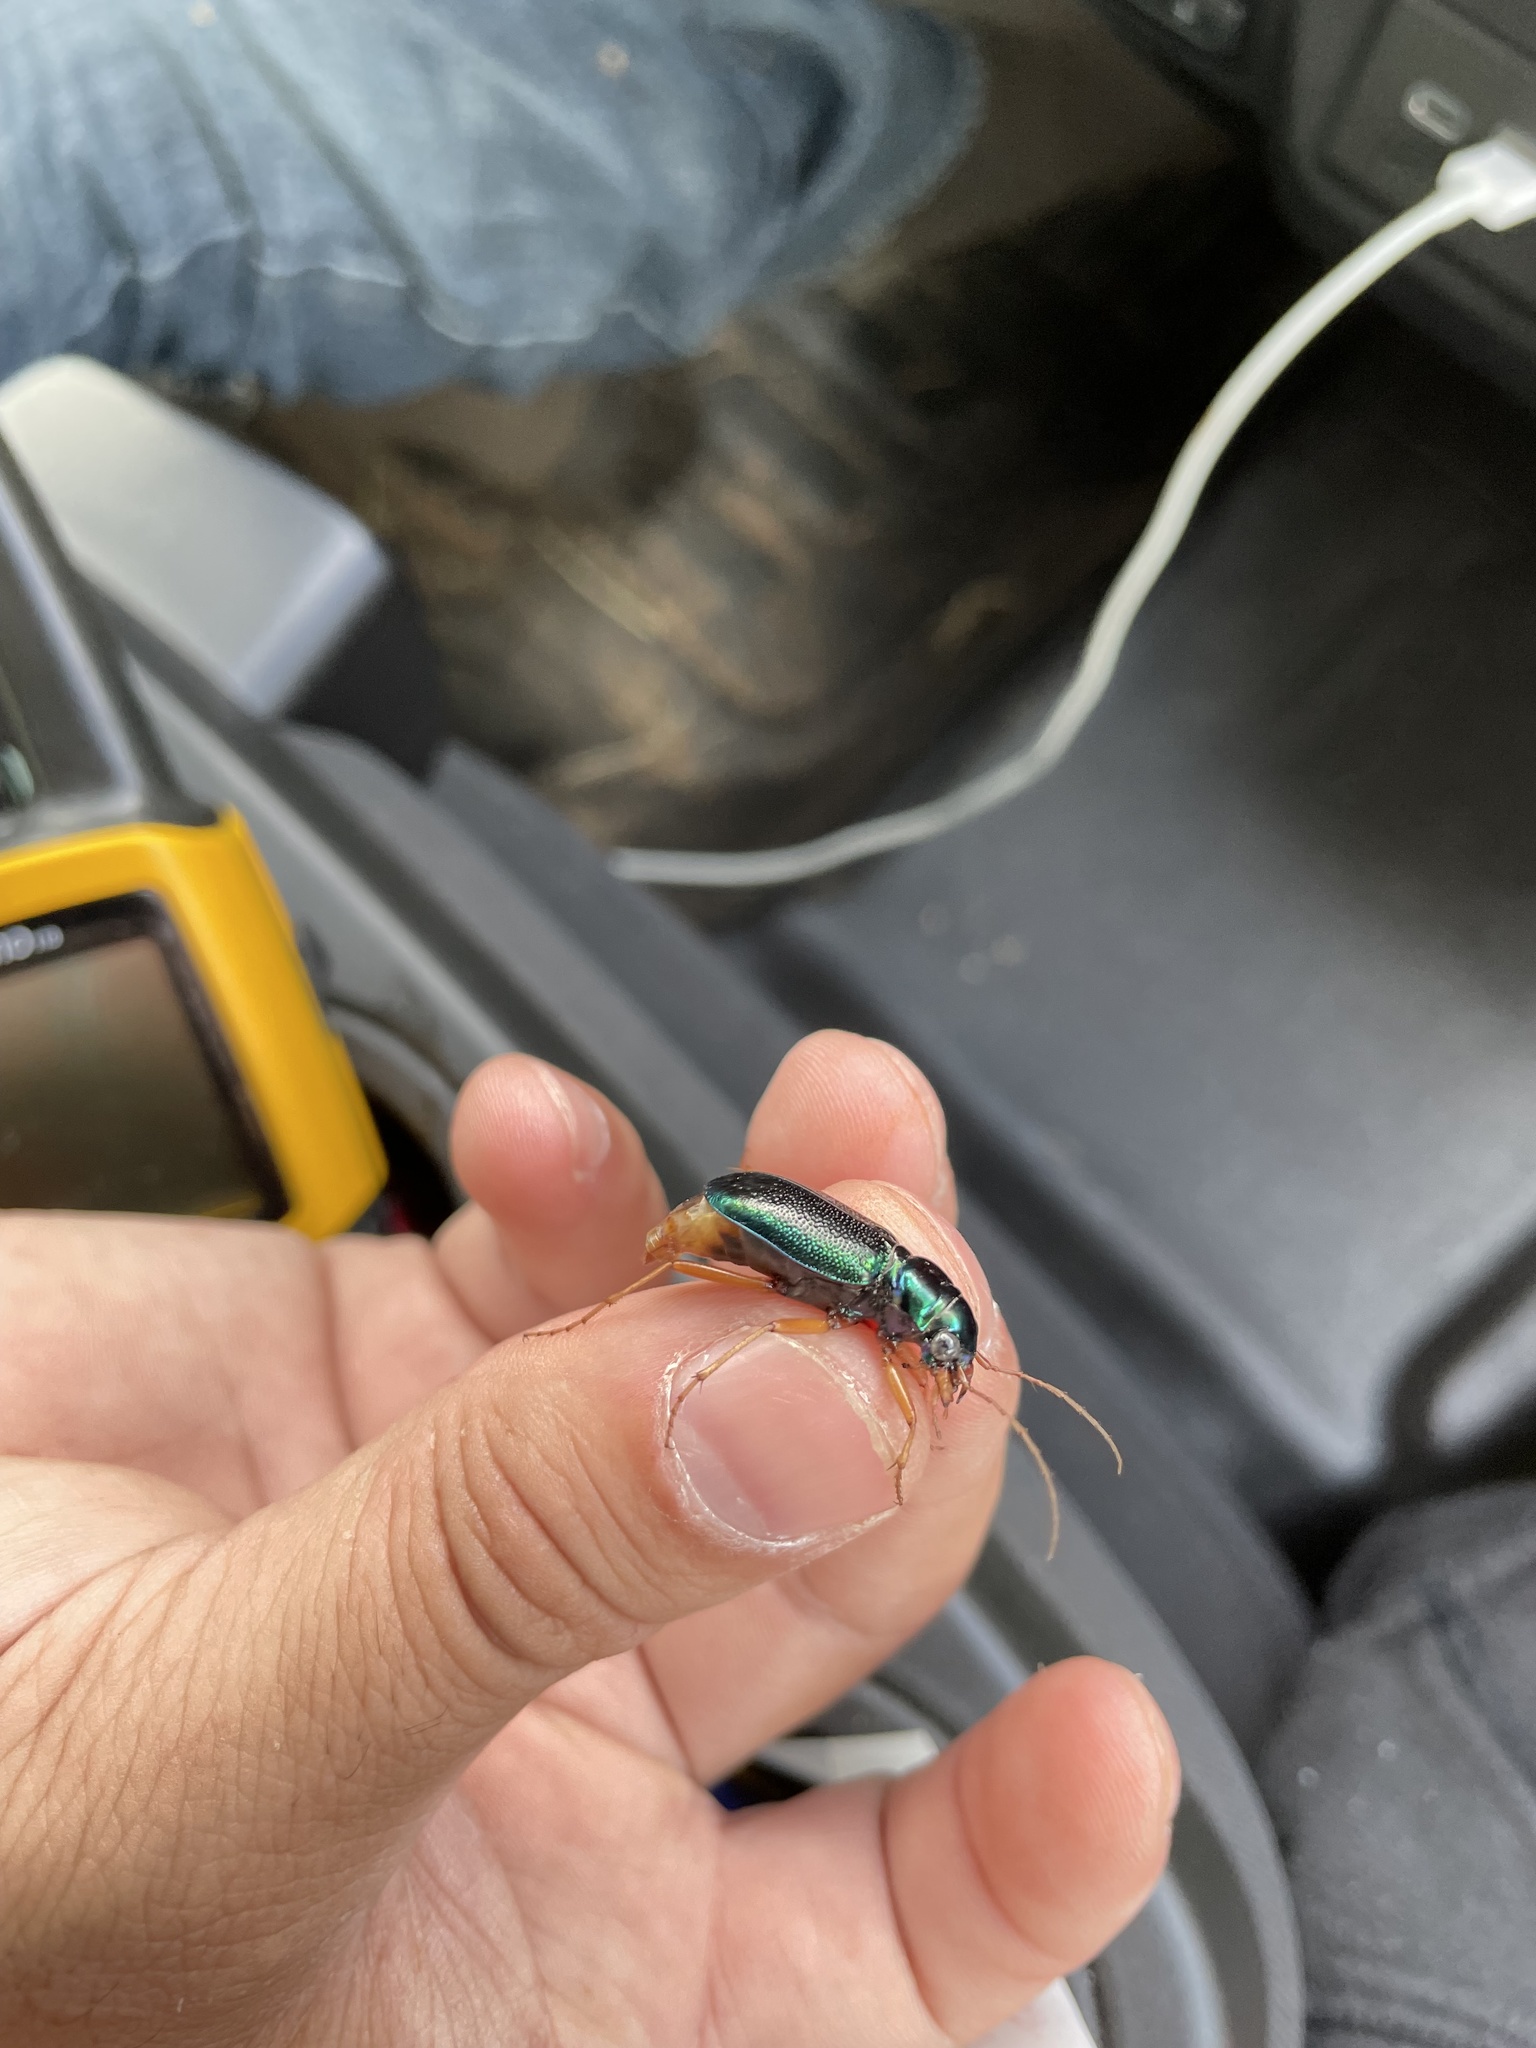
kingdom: Animalia
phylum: Arthropoda
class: Insecta
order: Coleoptera
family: Carabidae
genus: Tetracha
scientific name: Tetracha virginica
